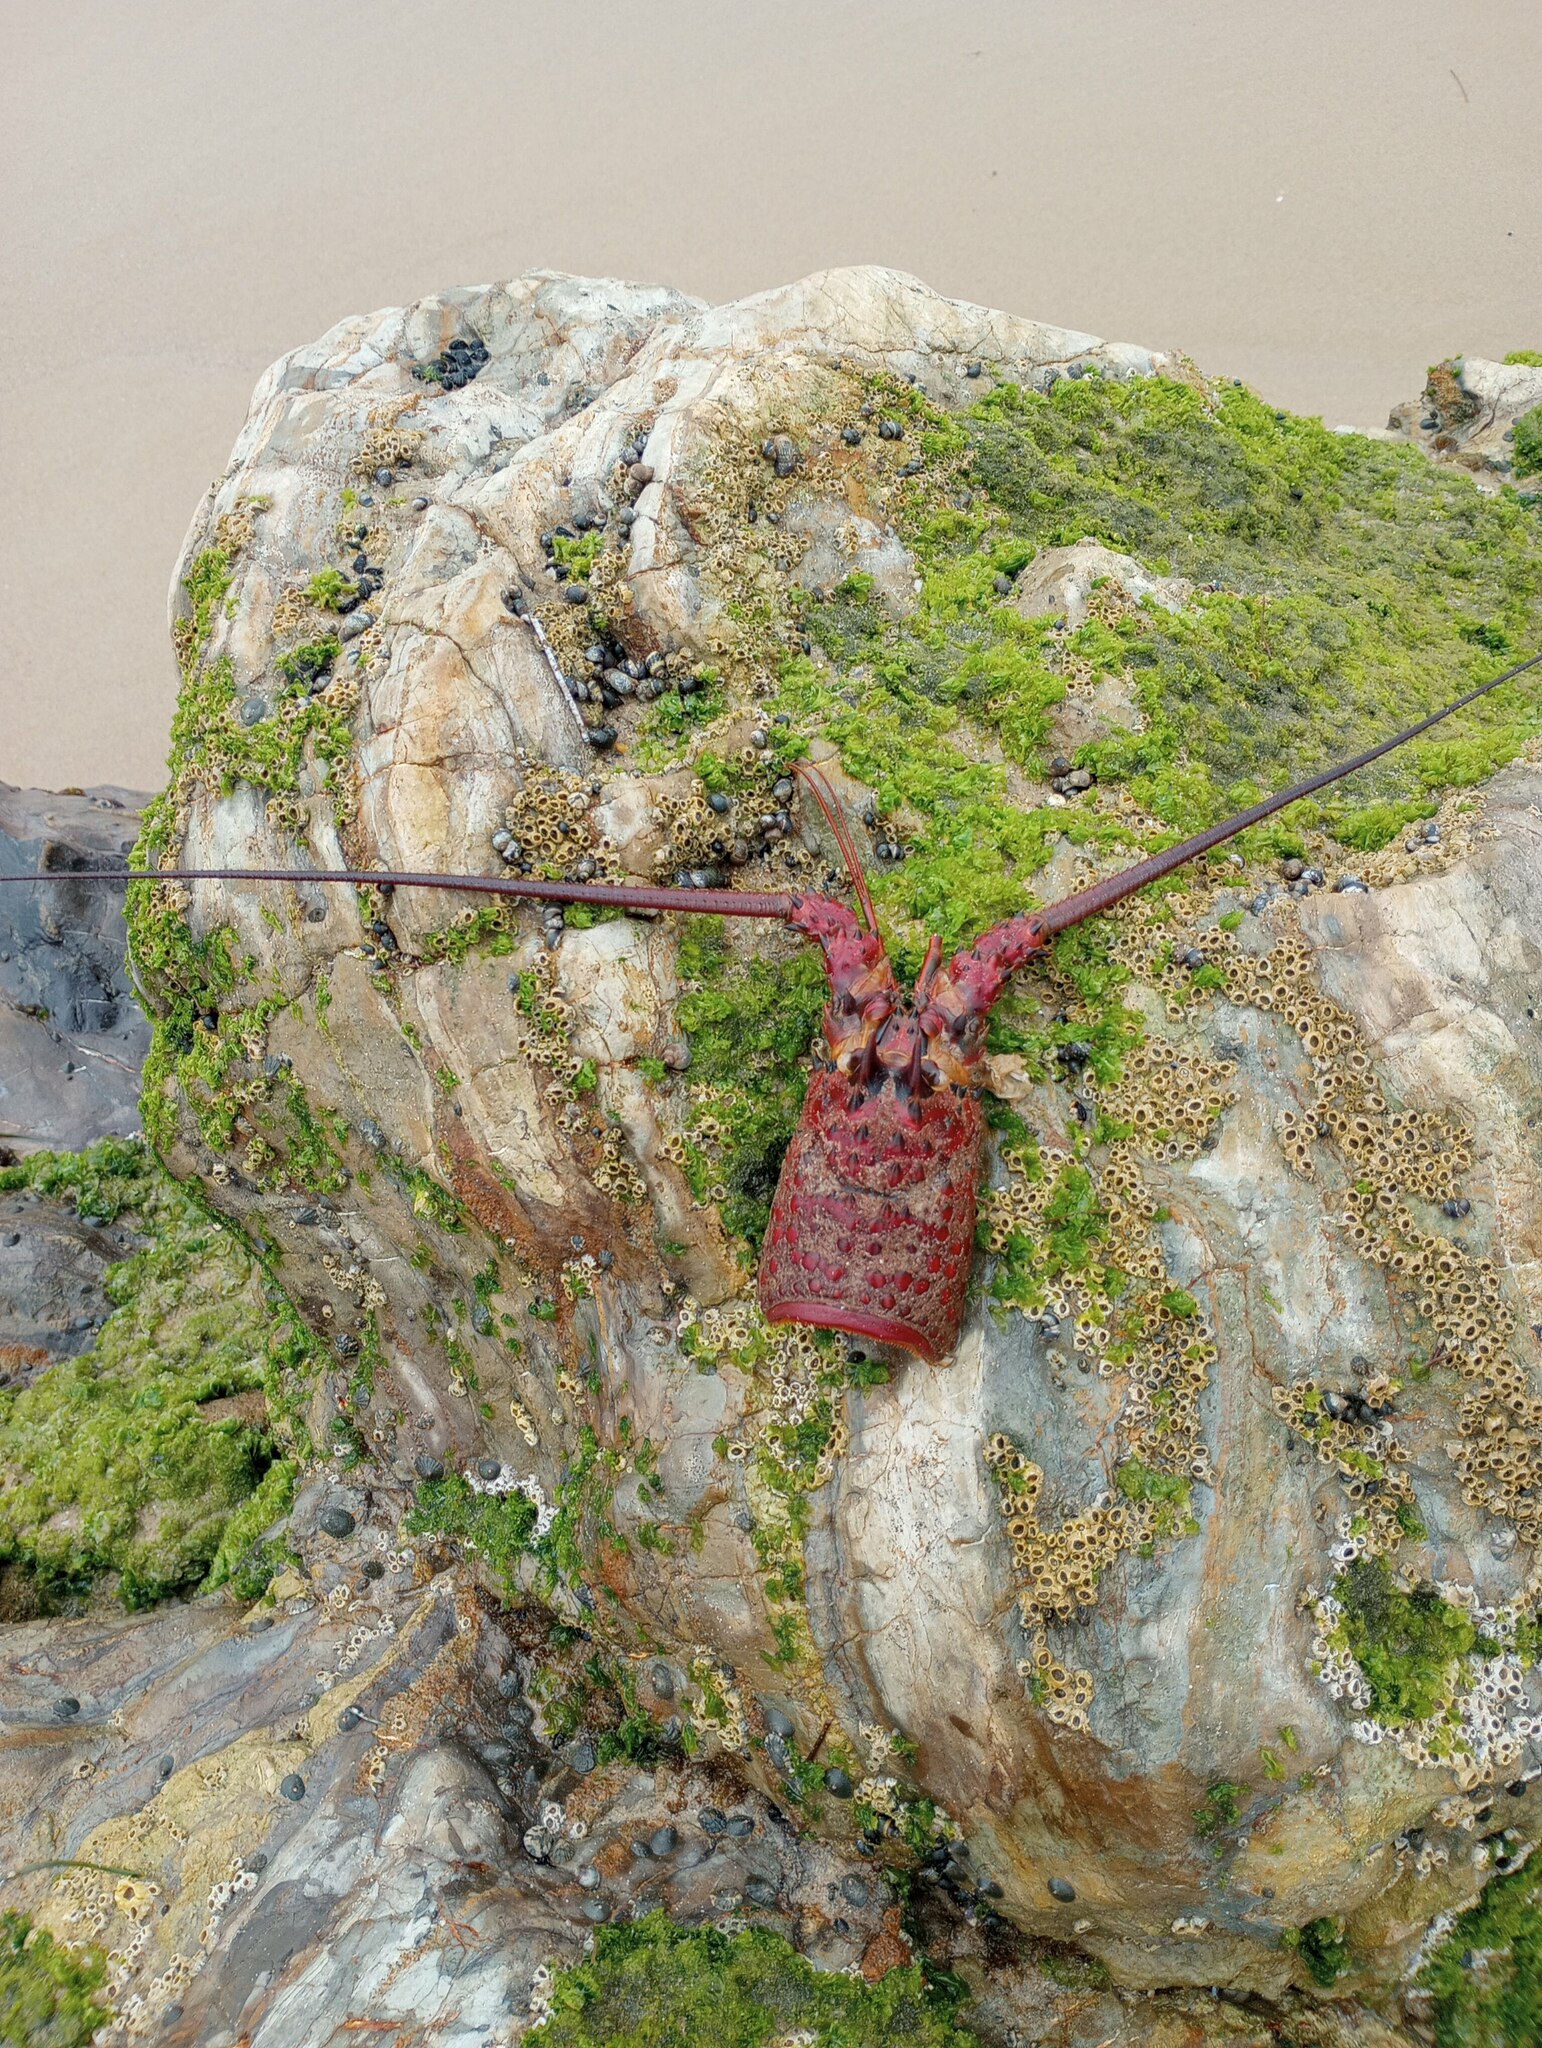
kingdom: Animalia
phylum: Arthropoda
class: Malacostraca
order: Decapoda
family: Palinuridae
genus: Panulirus
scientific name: Panulirus interruptus
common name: California spiny lobster
